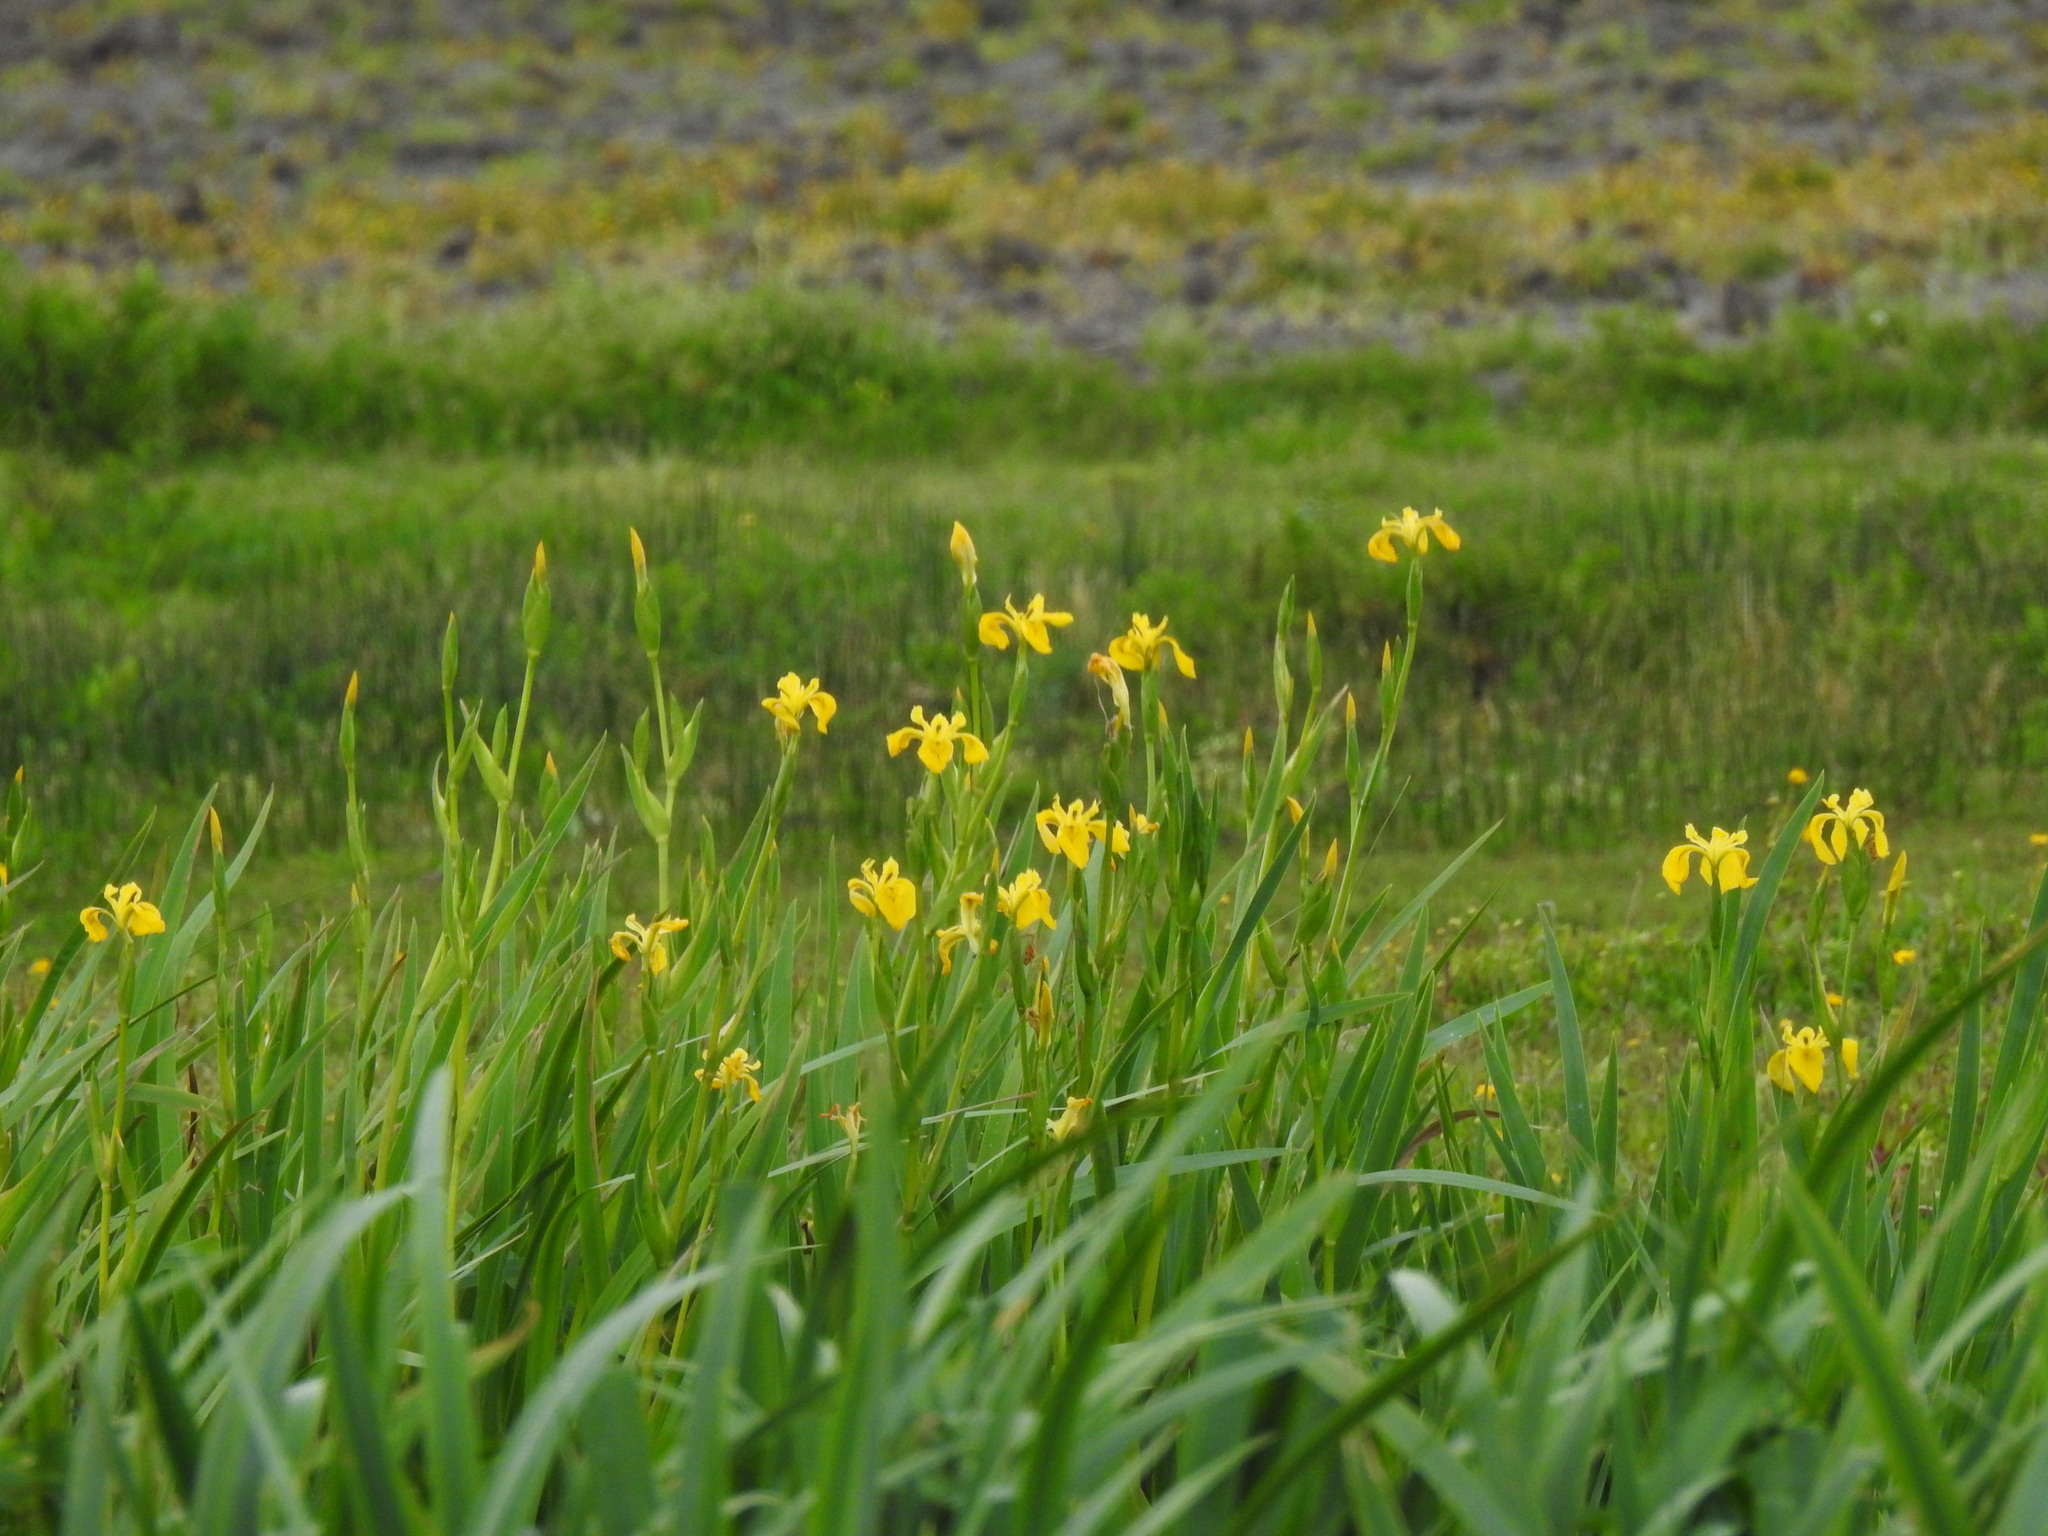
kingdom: Plantae
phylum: Tracheophyta
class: Liliopsida
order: Asparagales
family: Iridaceae
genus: Iris
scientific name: Iris pseudacorus
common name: Yellow flag
